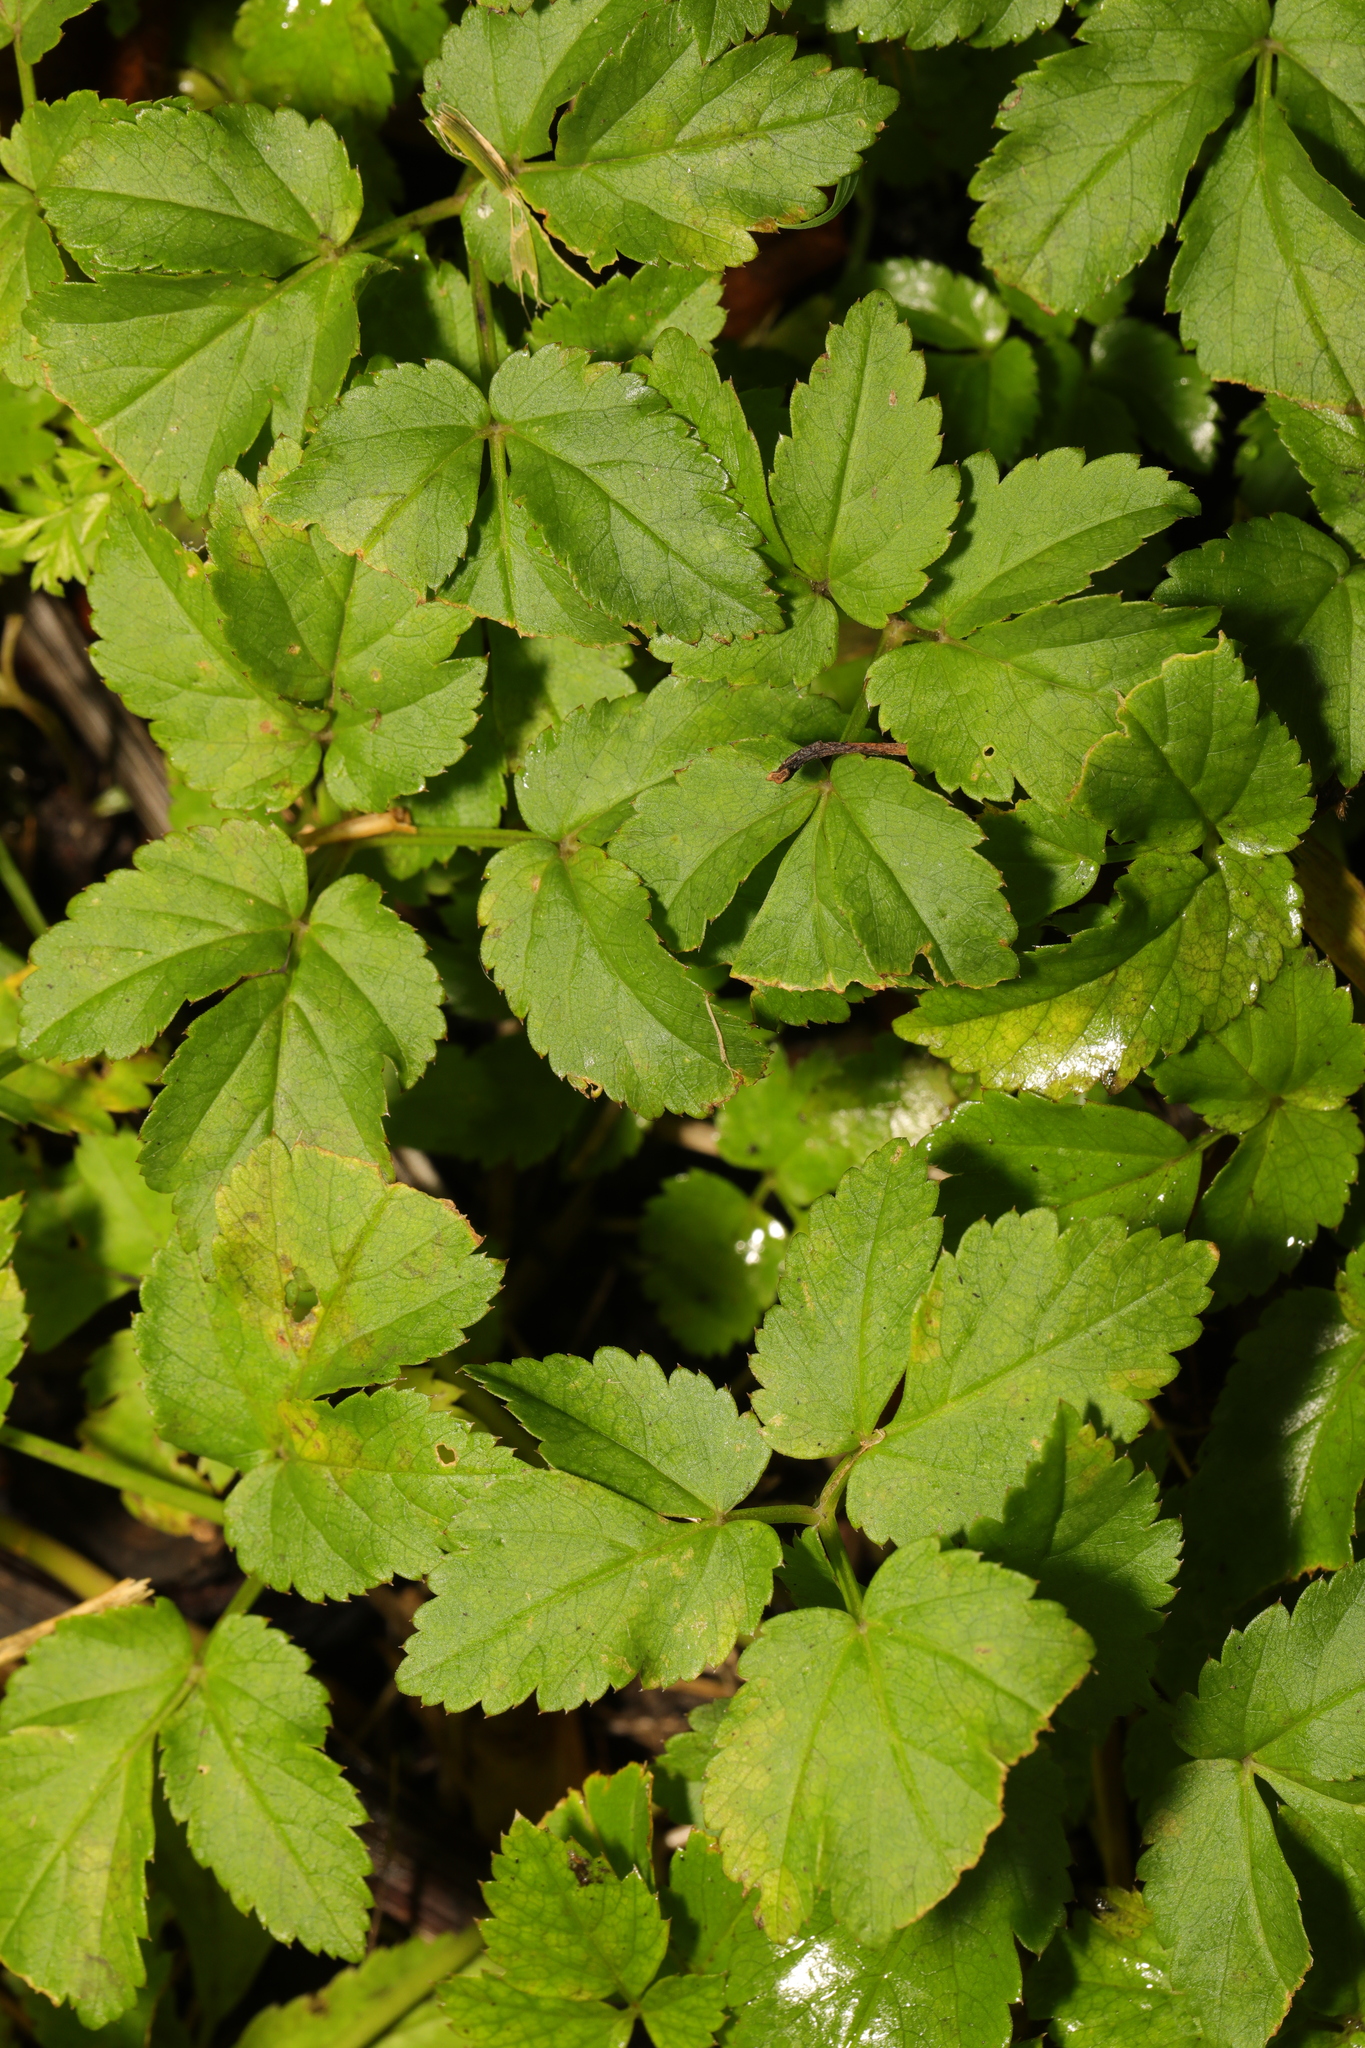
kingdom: Plantae
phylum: Tracheophyta
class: Magnoliopsida
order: Apiales
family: Apiaceae
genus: Aegopodium
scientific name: Aegopodium podagraria
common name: Ground-elder
